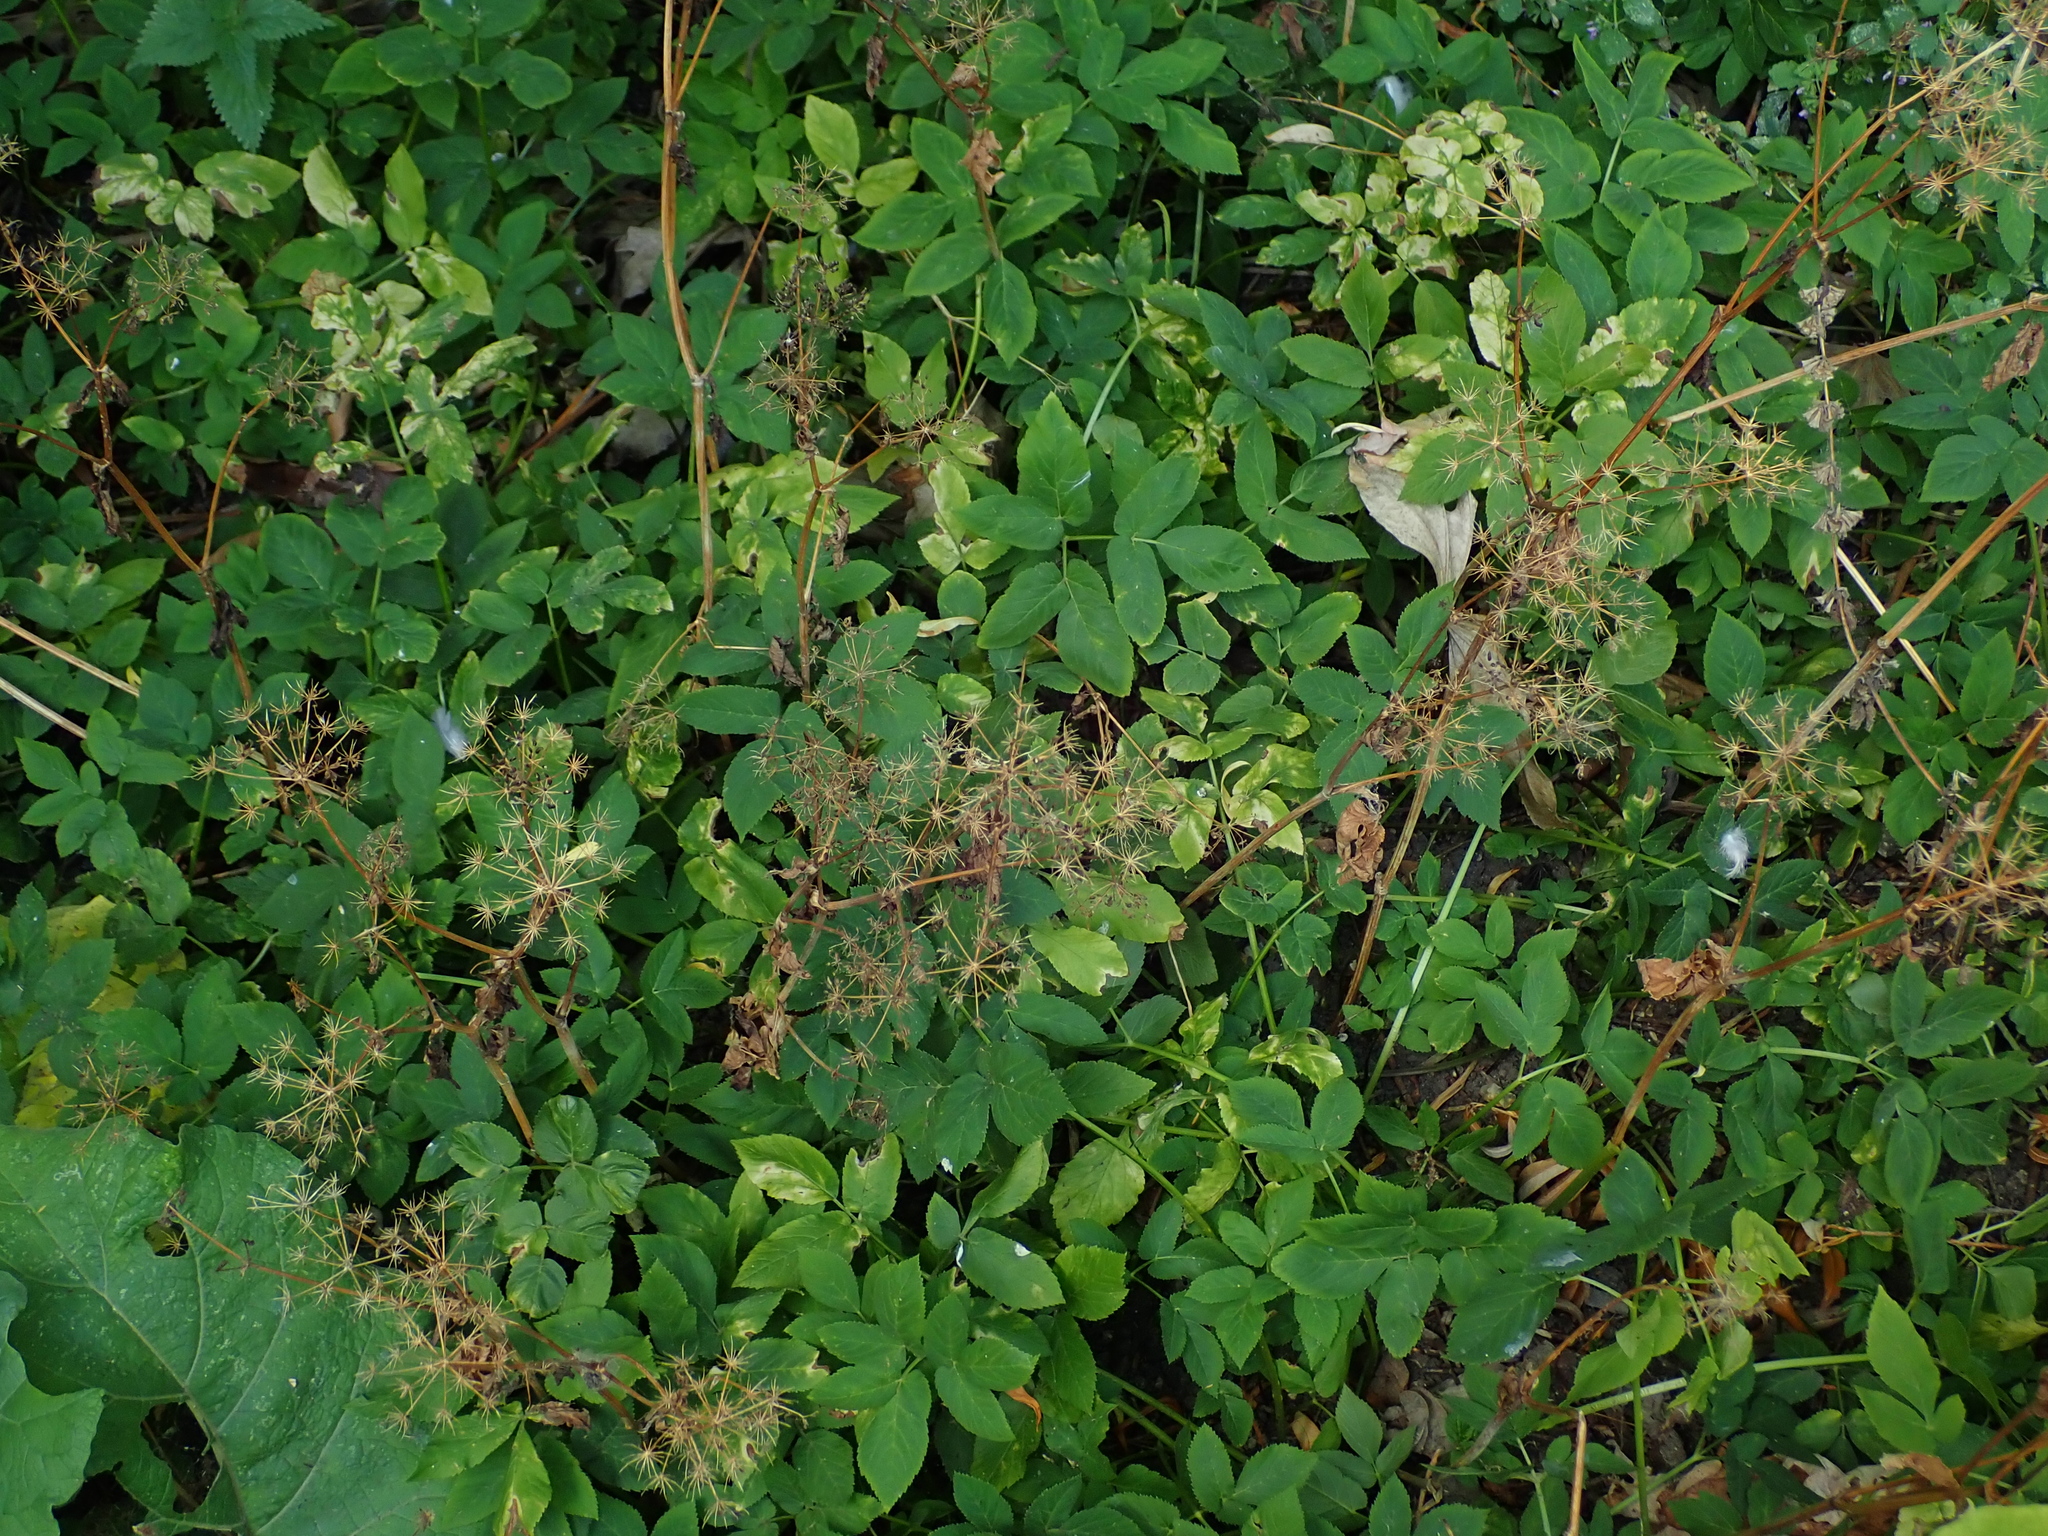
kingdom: Plantae
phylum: Tracheophyta
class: Magnoliopsida
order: Apiales
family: Apiaceae
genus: Aegopodium
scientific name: Aegopodium podagraria
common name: Ground-elder
